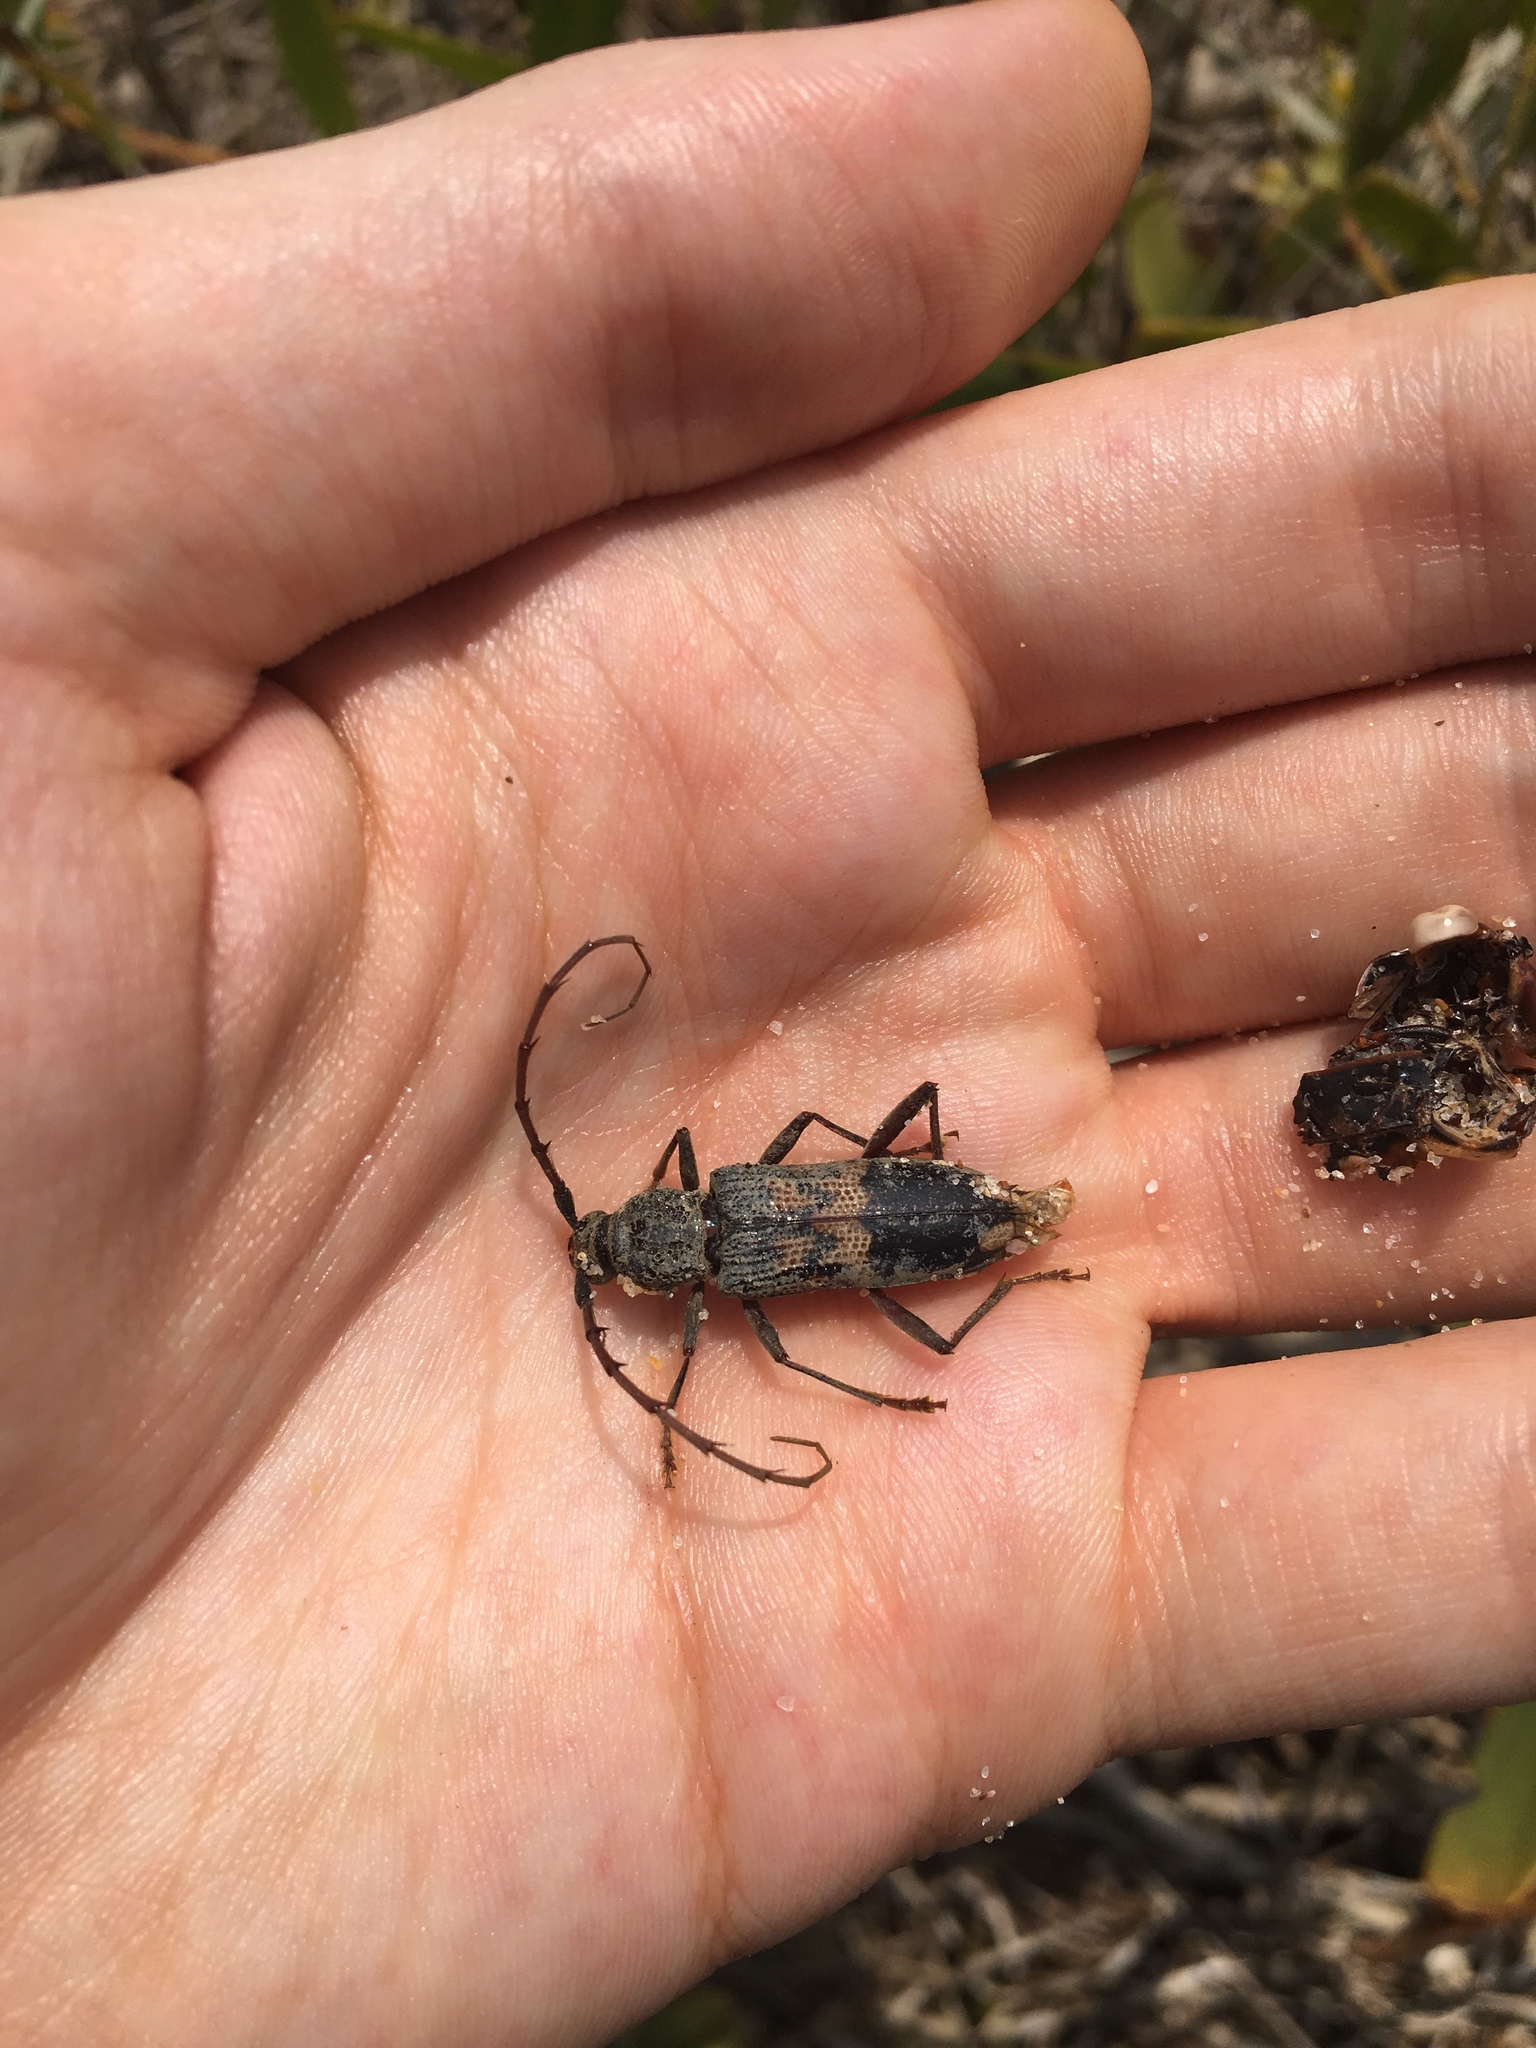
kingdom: Animalia
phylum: Arthropoda
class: Insecta
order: Coleoptera
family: Cerambycidae
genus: Phoracantha
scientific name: Phoracantha semipunctata
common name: Eucalyptus longhorn borer
